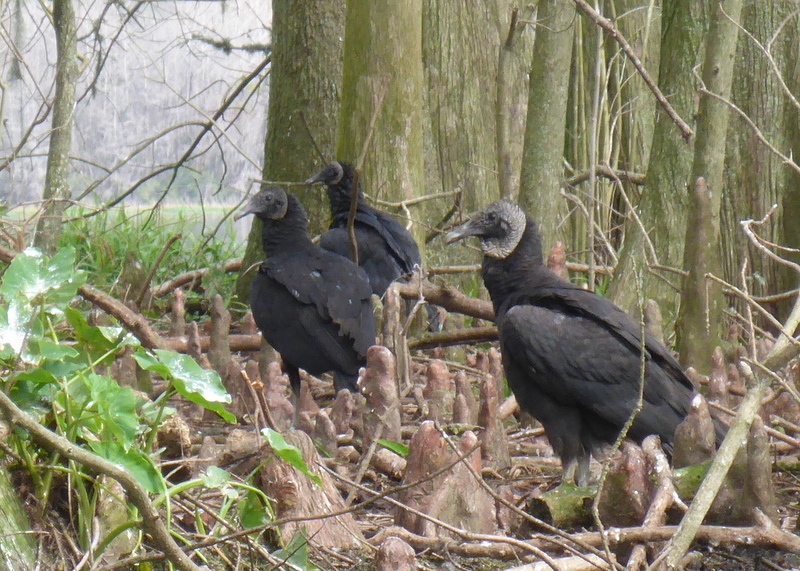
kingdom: Animalia
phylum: Chordata
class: Aves
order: Accipitriformes
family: Cathartidae
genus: Coragyps
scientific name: Coragyps atratus
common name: Black vulture
